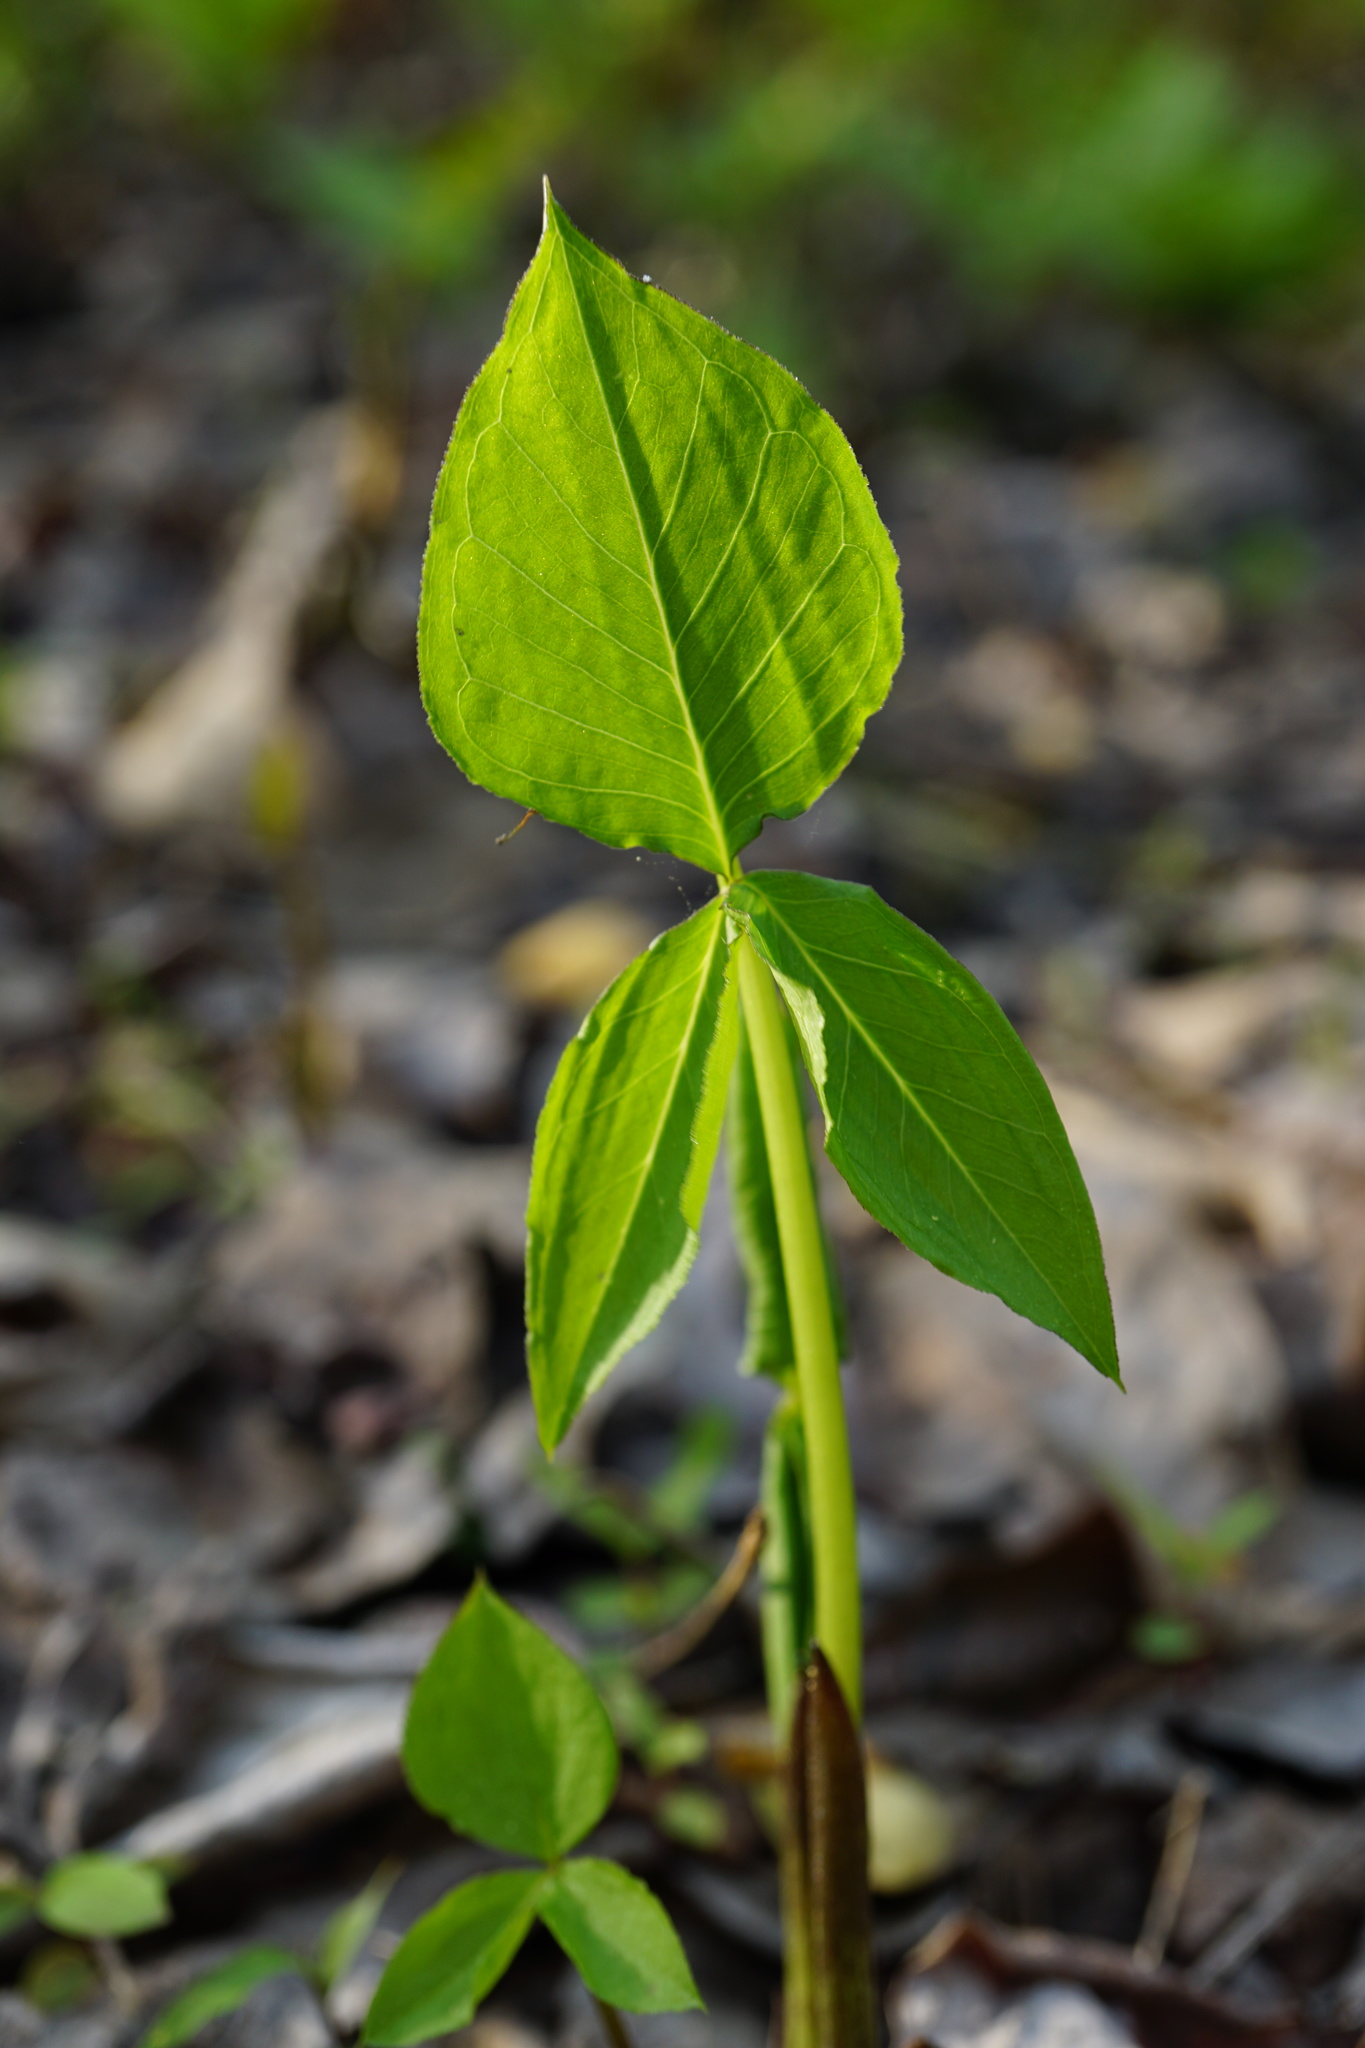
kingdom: Plantae
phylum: Tracheophyta
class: Liliopsida
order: Alismatales
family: Araceae
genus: Arisaema
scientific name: Arisaema triphyllum
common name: Jack-in-the-pulpit
